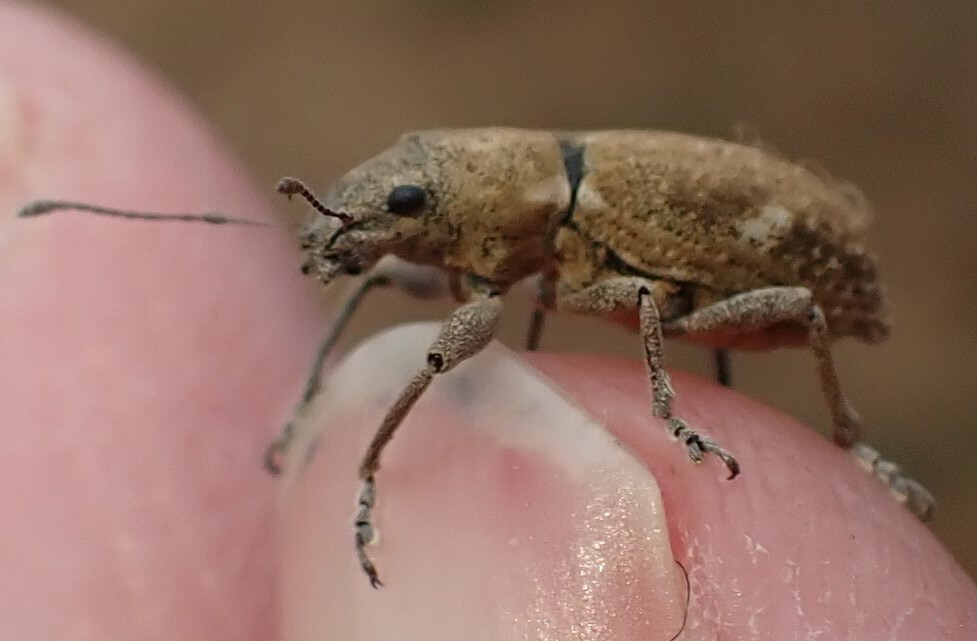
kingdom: Animalia
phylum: Arthropoda
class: Insecta
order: Coleoptera
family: Curculionidae
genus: Naupactus
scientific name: Naupactus cervinus
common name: Fuller rose beetle
